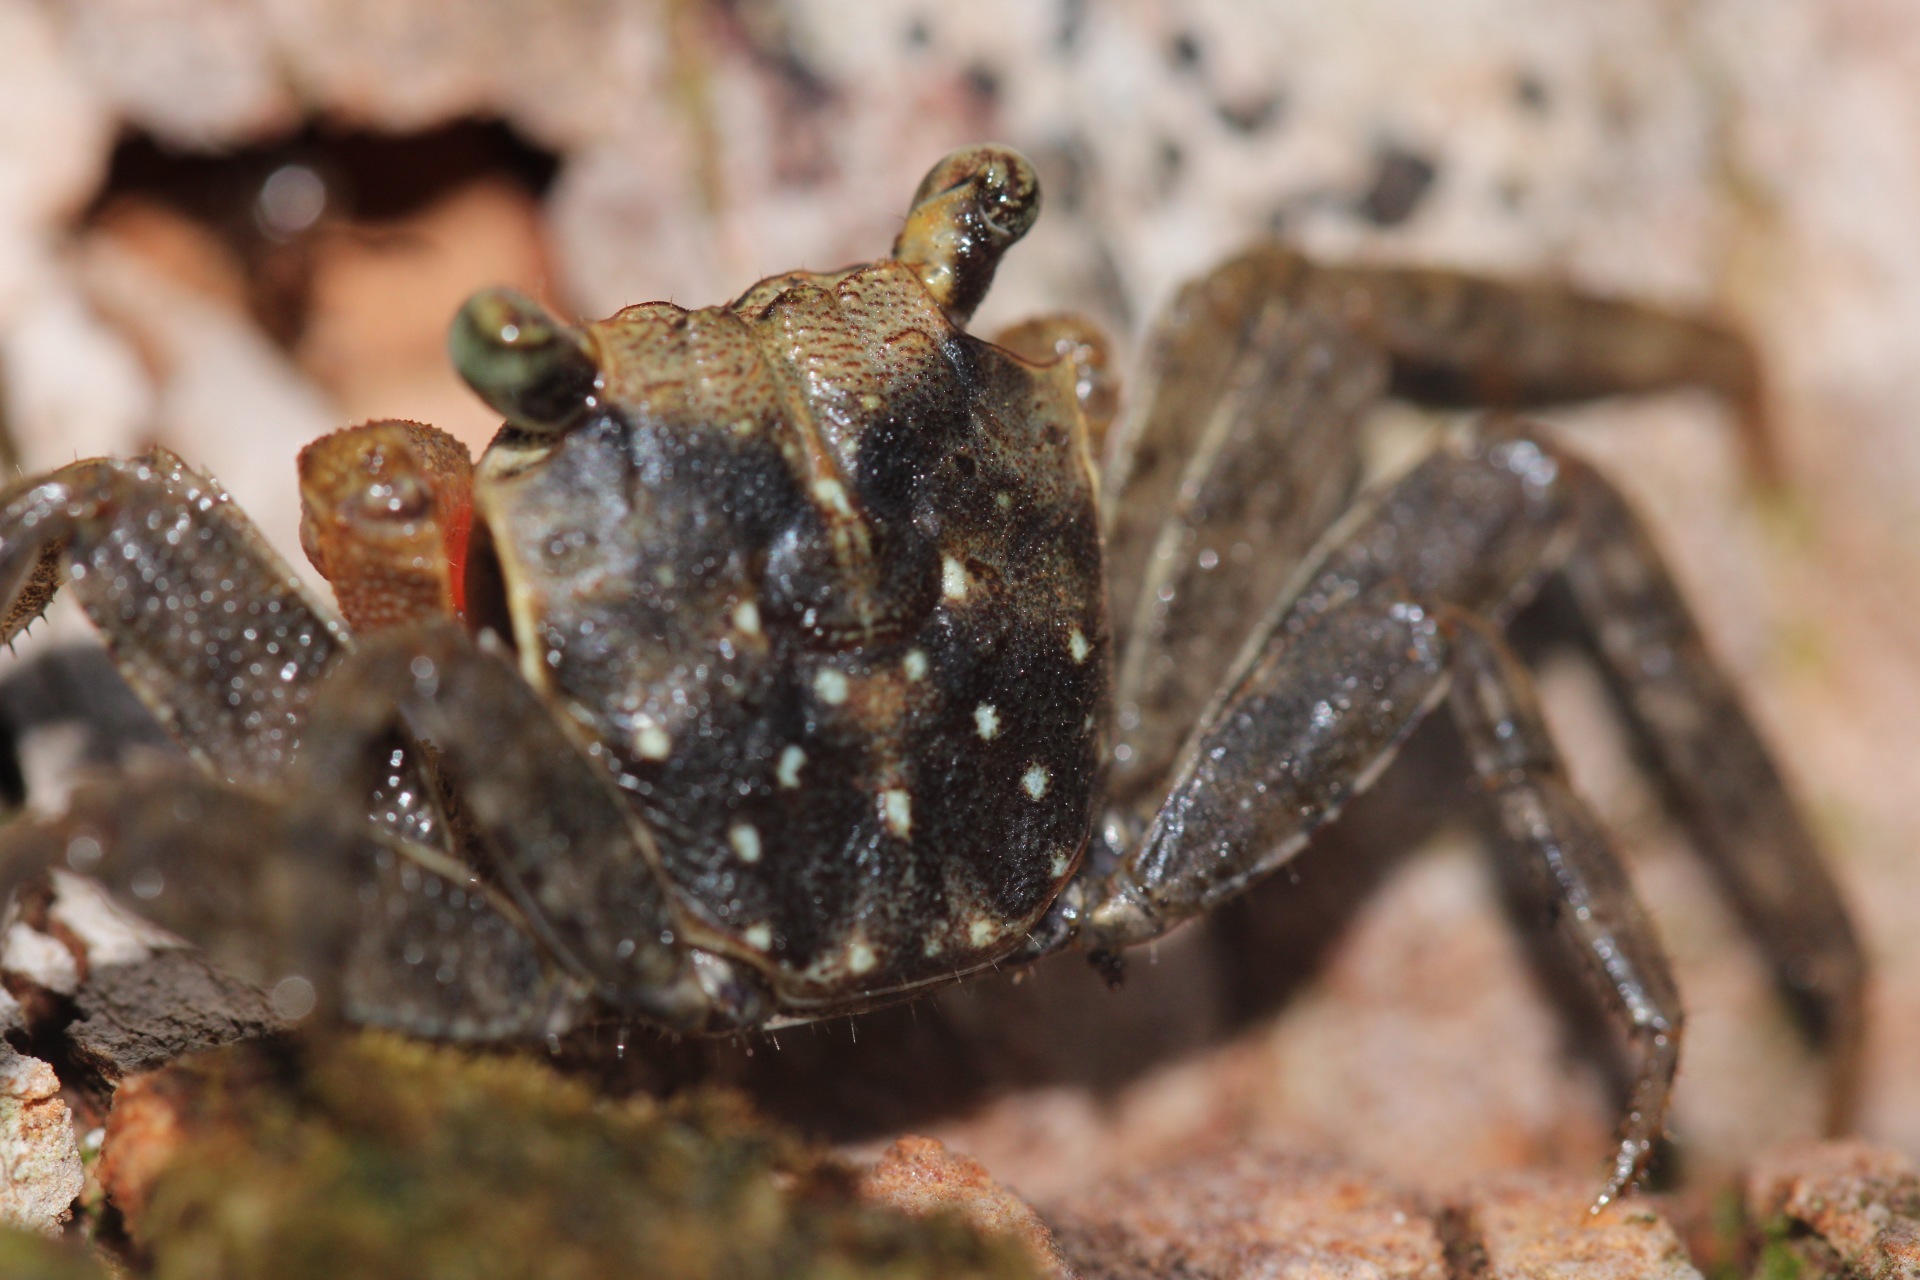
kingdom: Animalia
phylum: Arthropoda
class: Malacostraca
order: Decapoda
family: Sesarmidae
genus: Armases
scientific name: Armases angustum
